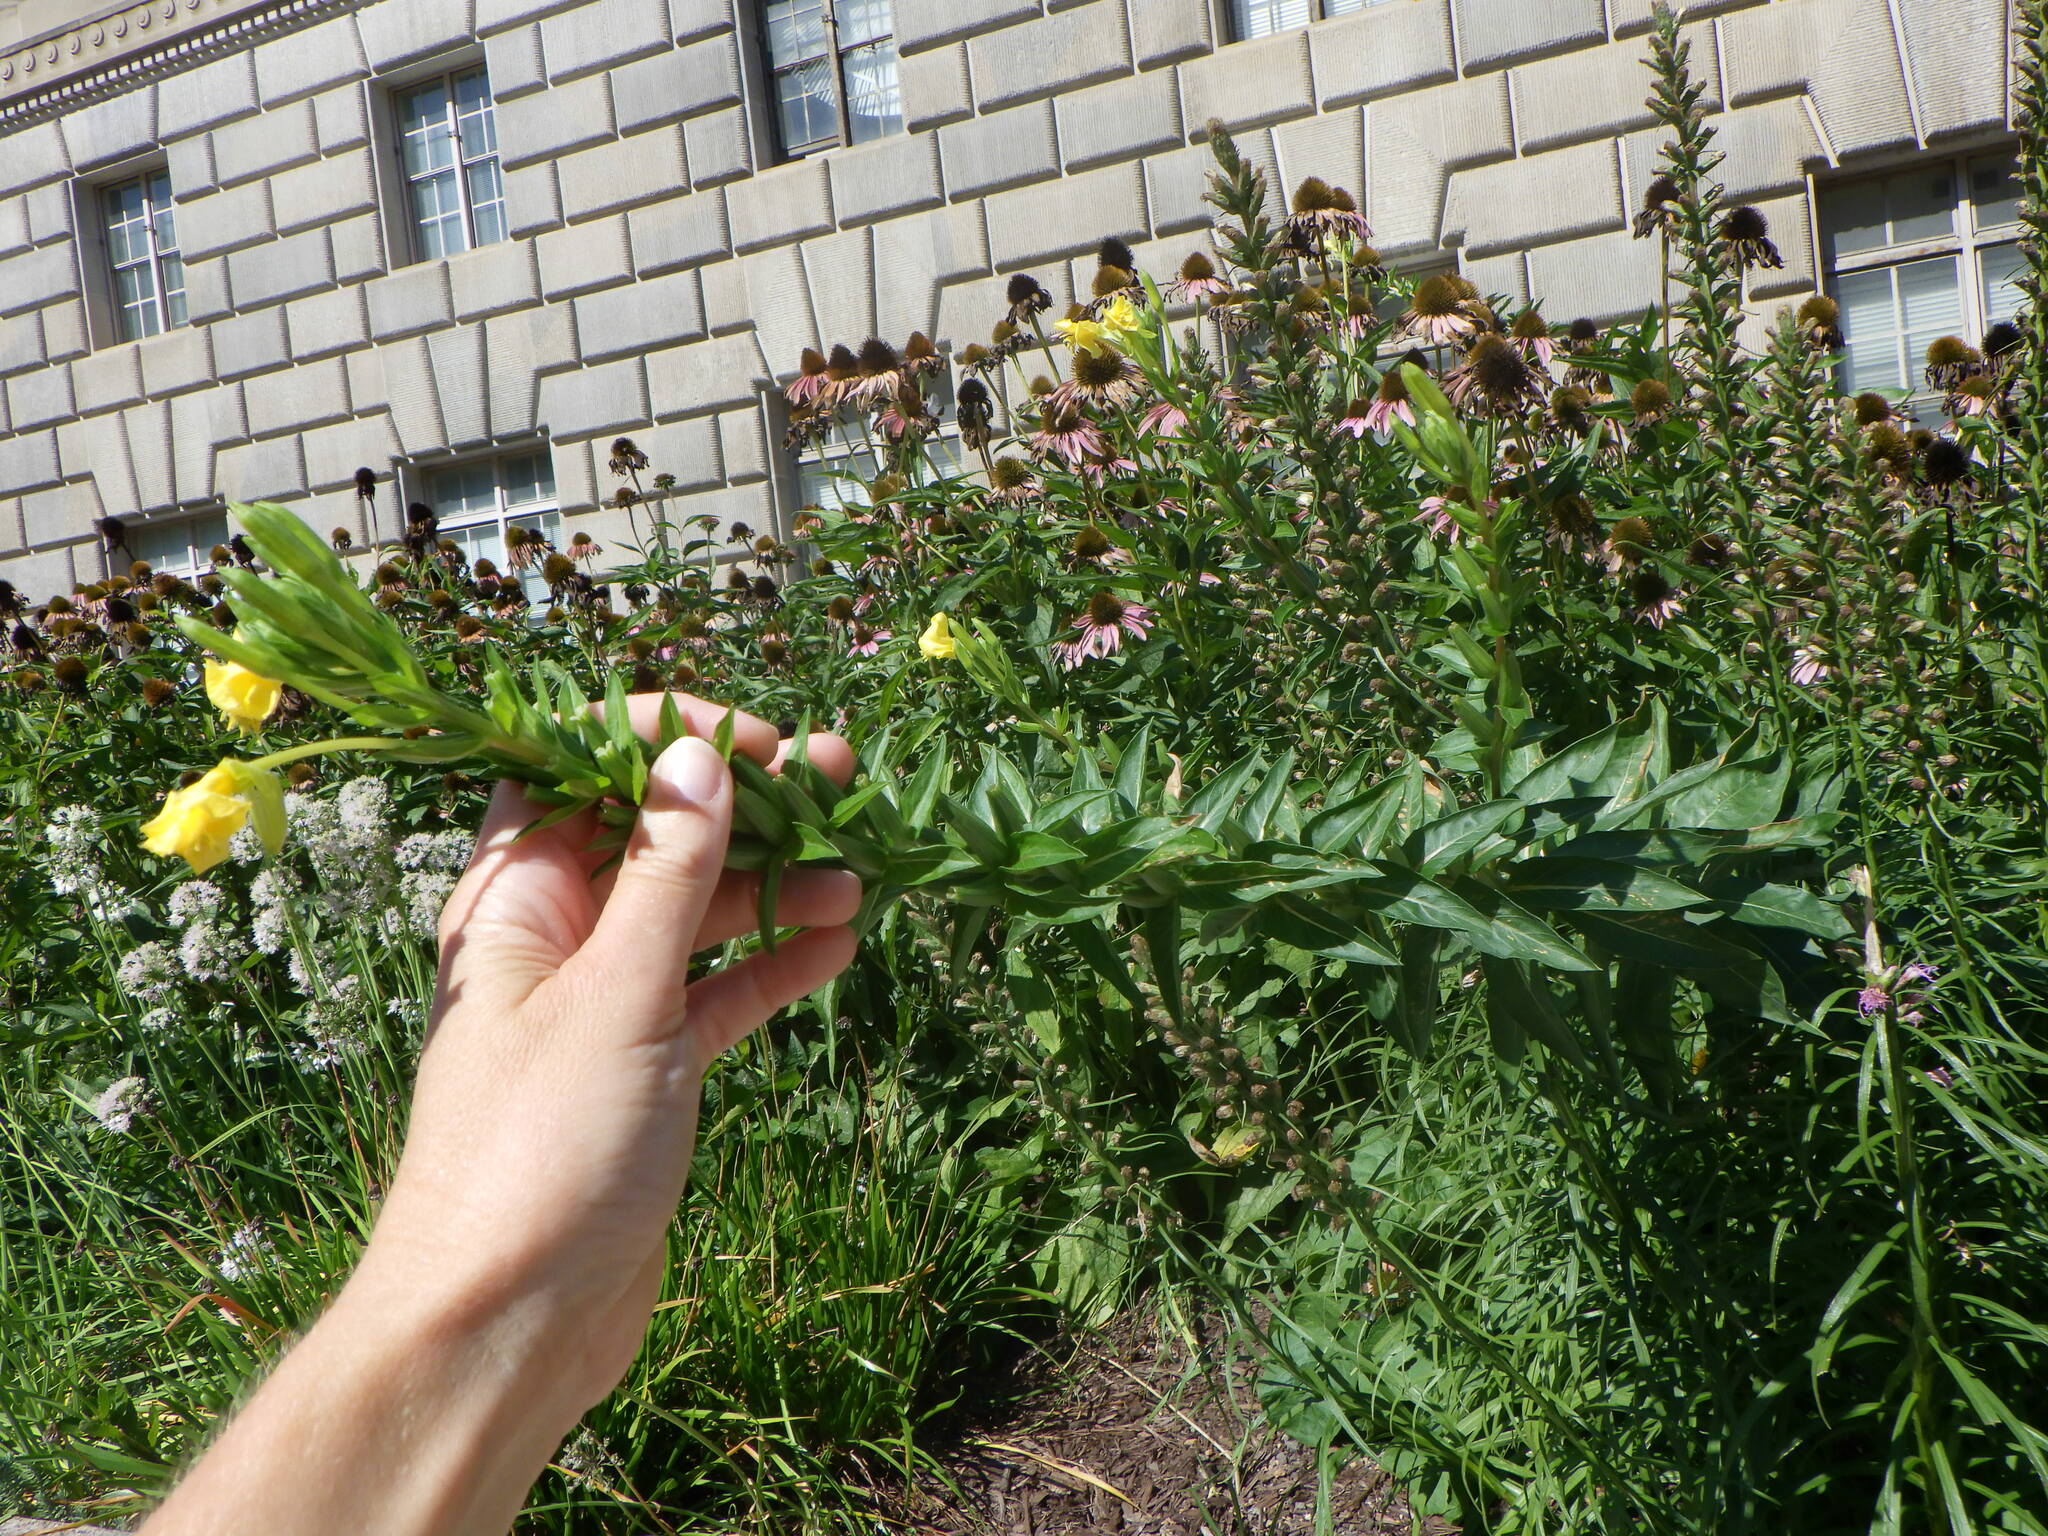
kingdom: Plantae
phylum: Tracheophyta
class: Magnoliopsida
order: Myrtales
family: Onagraceae
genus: Oenothera
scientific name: Oenothera biennis
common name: Common evening-primrose
